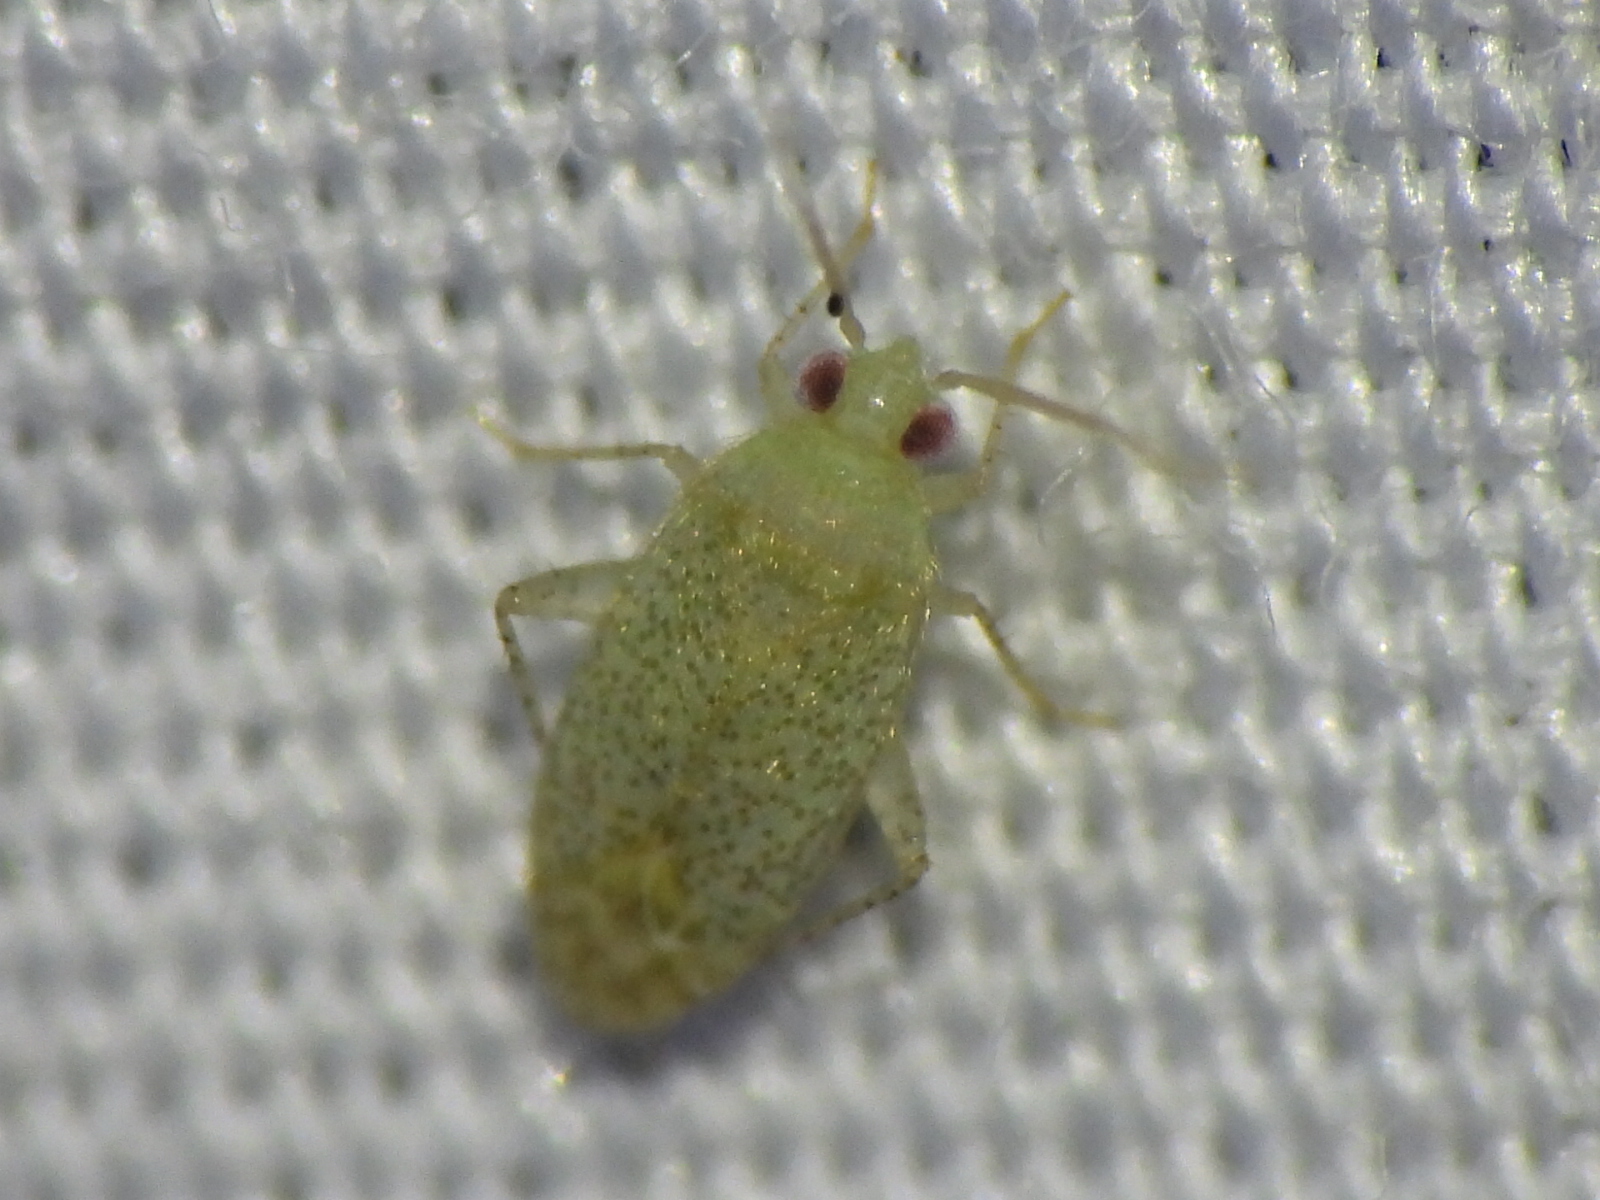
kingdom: Animalia
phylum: Arthropoda
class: Insecta
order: Hemiptera
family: Miridae
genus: Pseudatomoscelis
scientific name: Pseudatomoscelis seriatus
